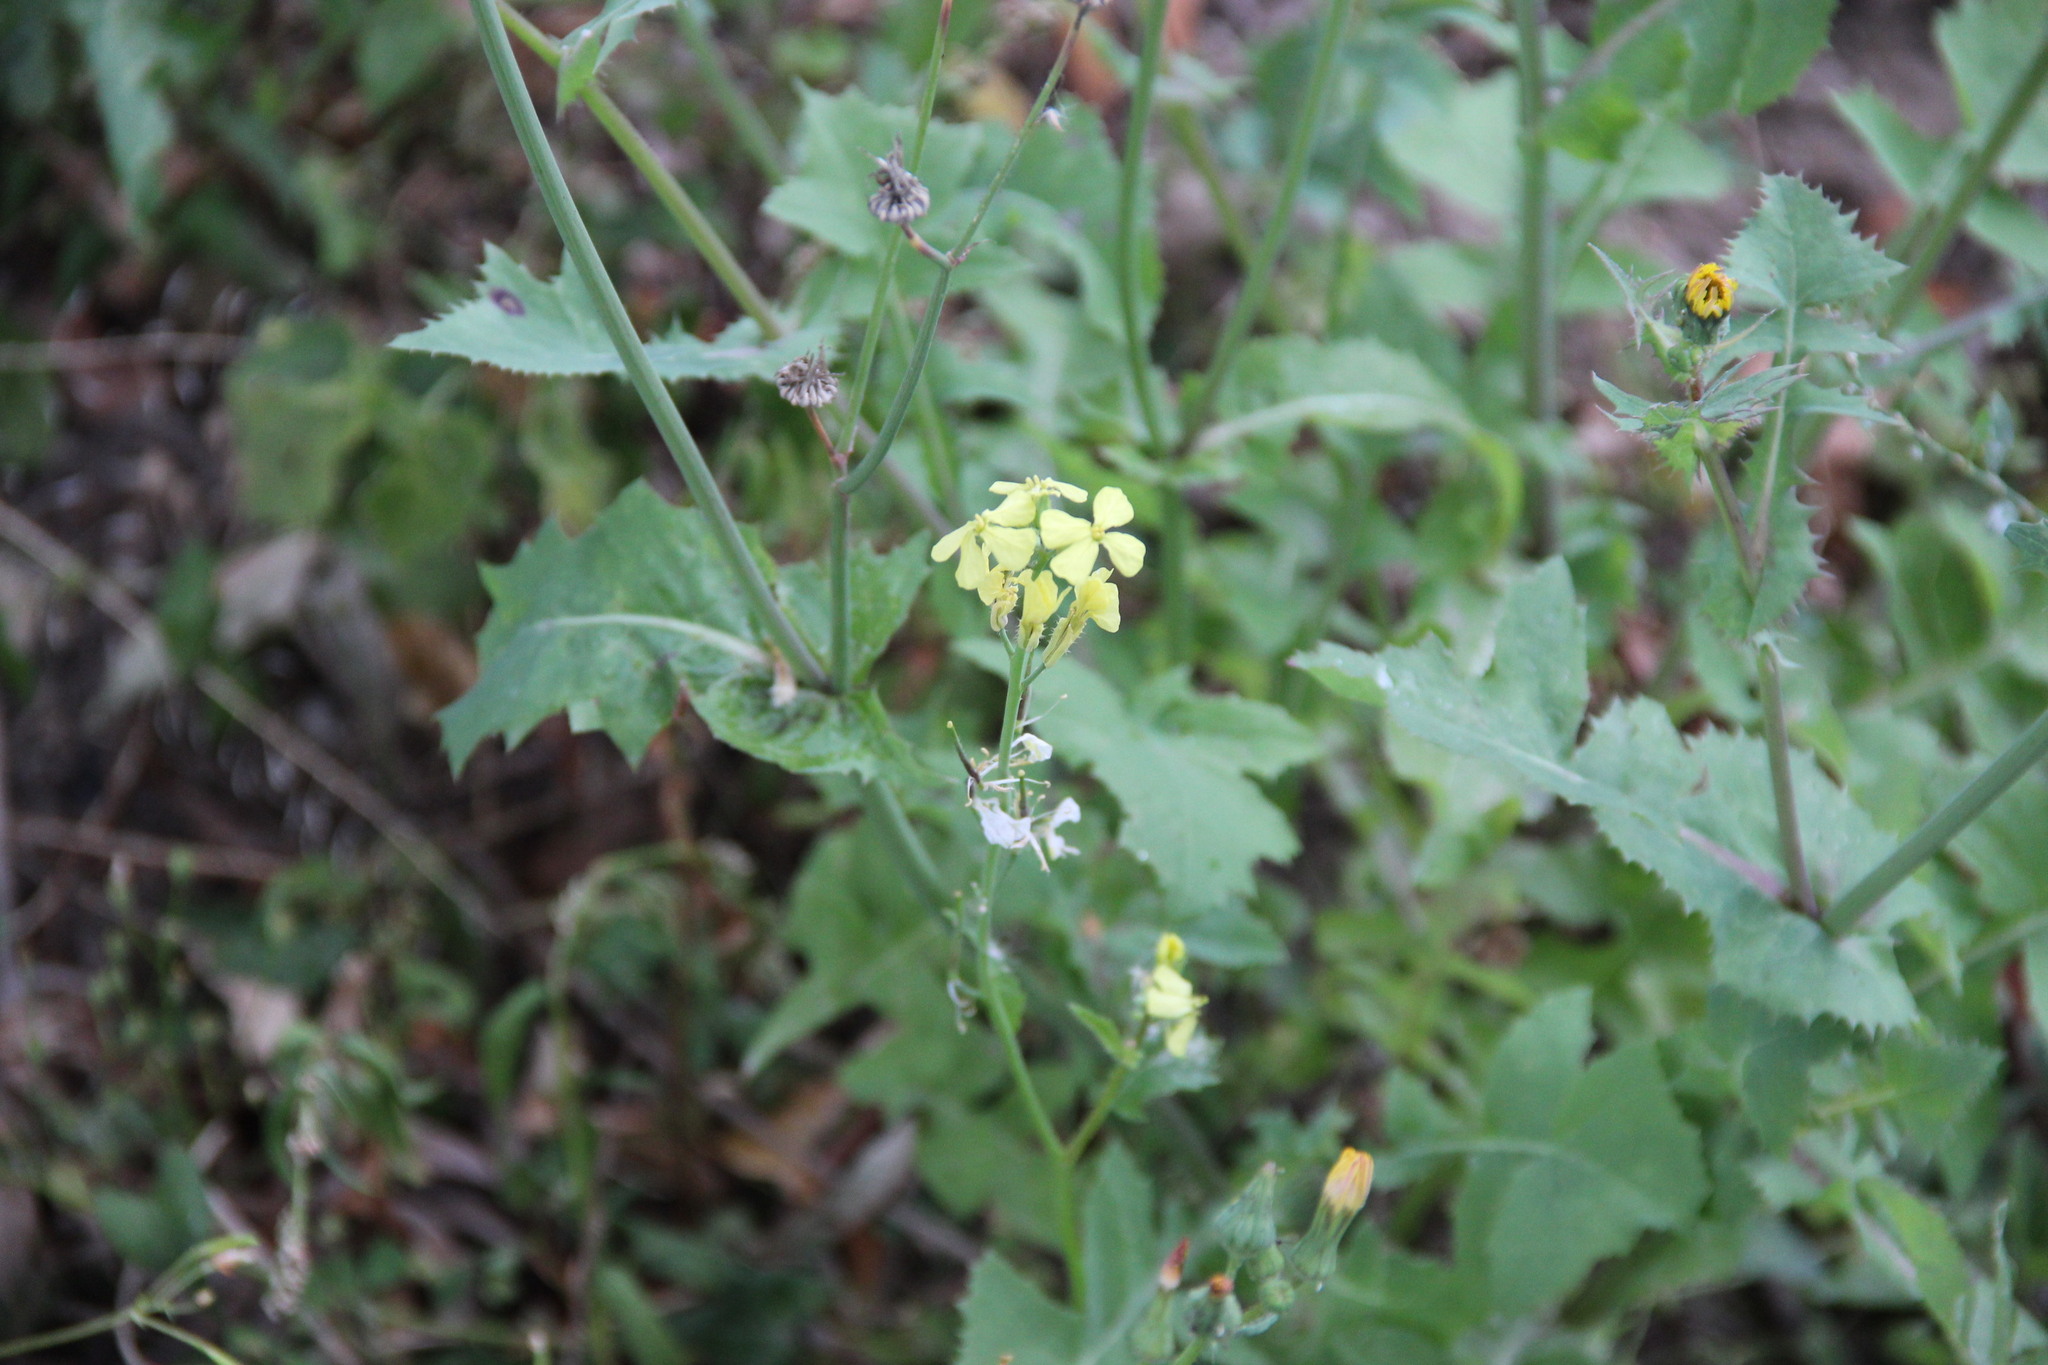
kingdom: Plantae
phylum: Tracheophyta
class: Magnoliopsida
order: Brassicales
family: Brassicaceae
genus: Raphanus
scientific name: Raphanus raphanistrum
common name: Wild radish
